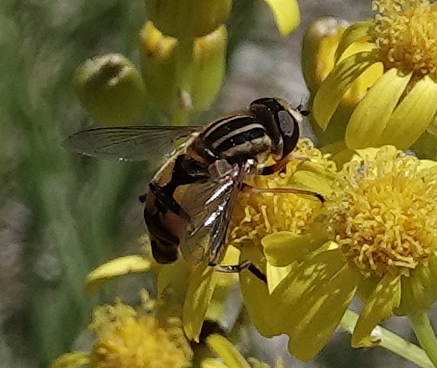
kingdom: Animalia
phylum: Arthropoda
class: Insecta
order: Diptera
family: Syrphidae
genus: Helophilus
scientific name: Helophilus latifrons
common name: Broad-headed marsh fly
